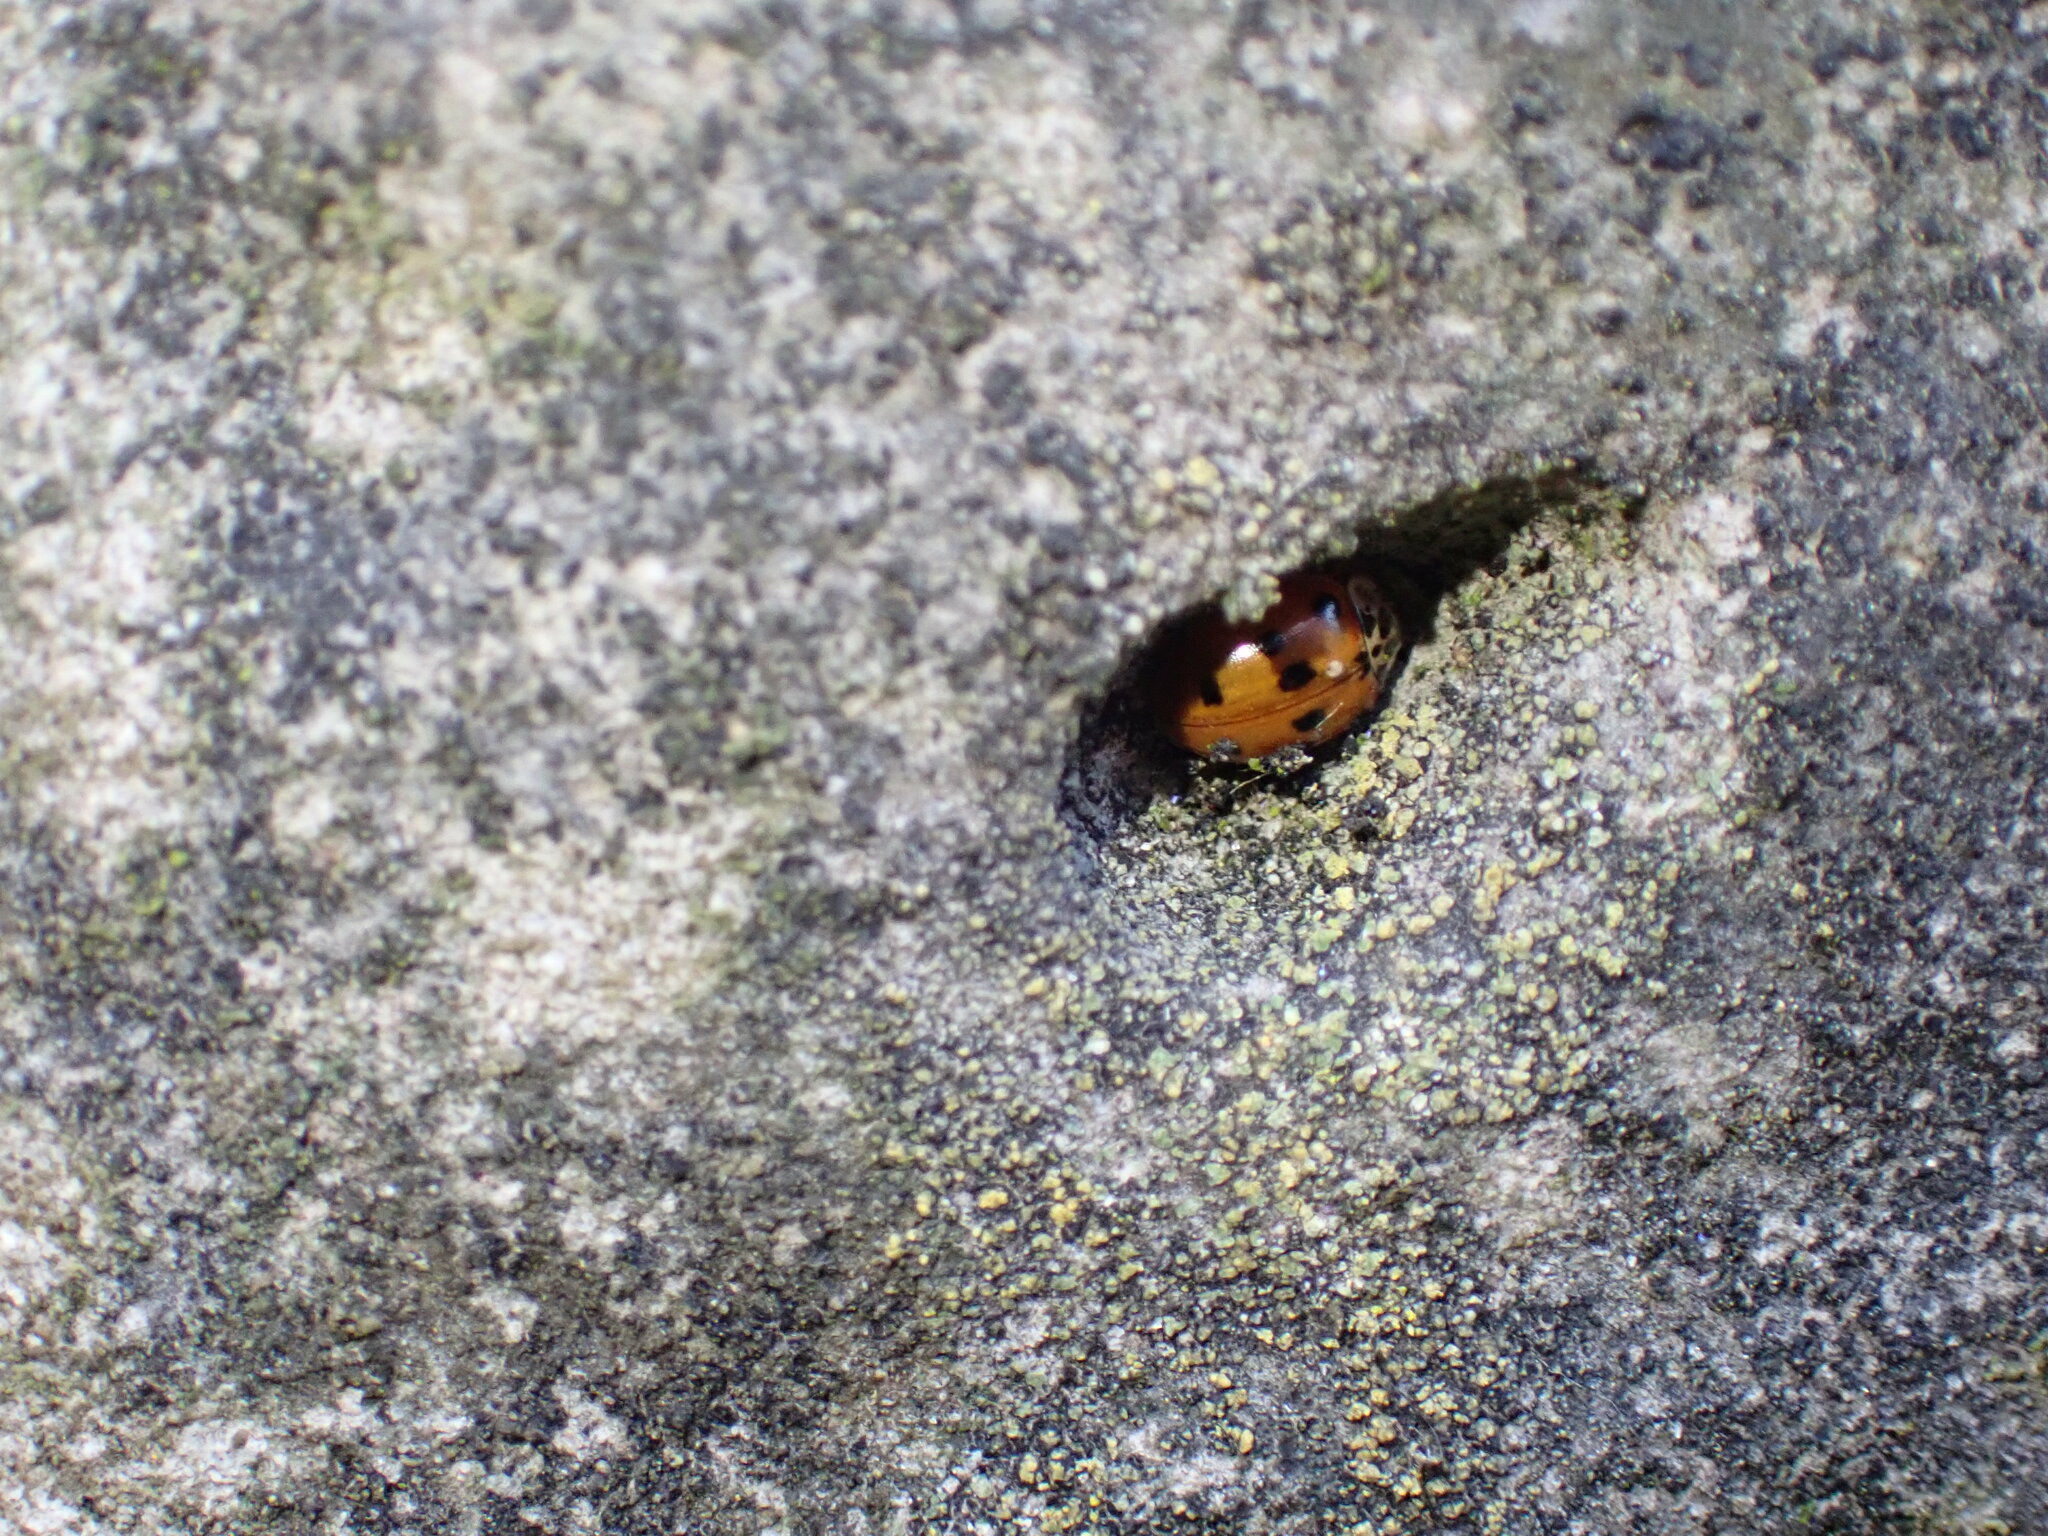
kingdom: Animalia
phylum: Arthropoda
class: Insecta
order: Coleoptera
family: Coccinellidae
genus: Adalia
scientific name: Adalia decempunctata
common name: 10-spot ladybird
